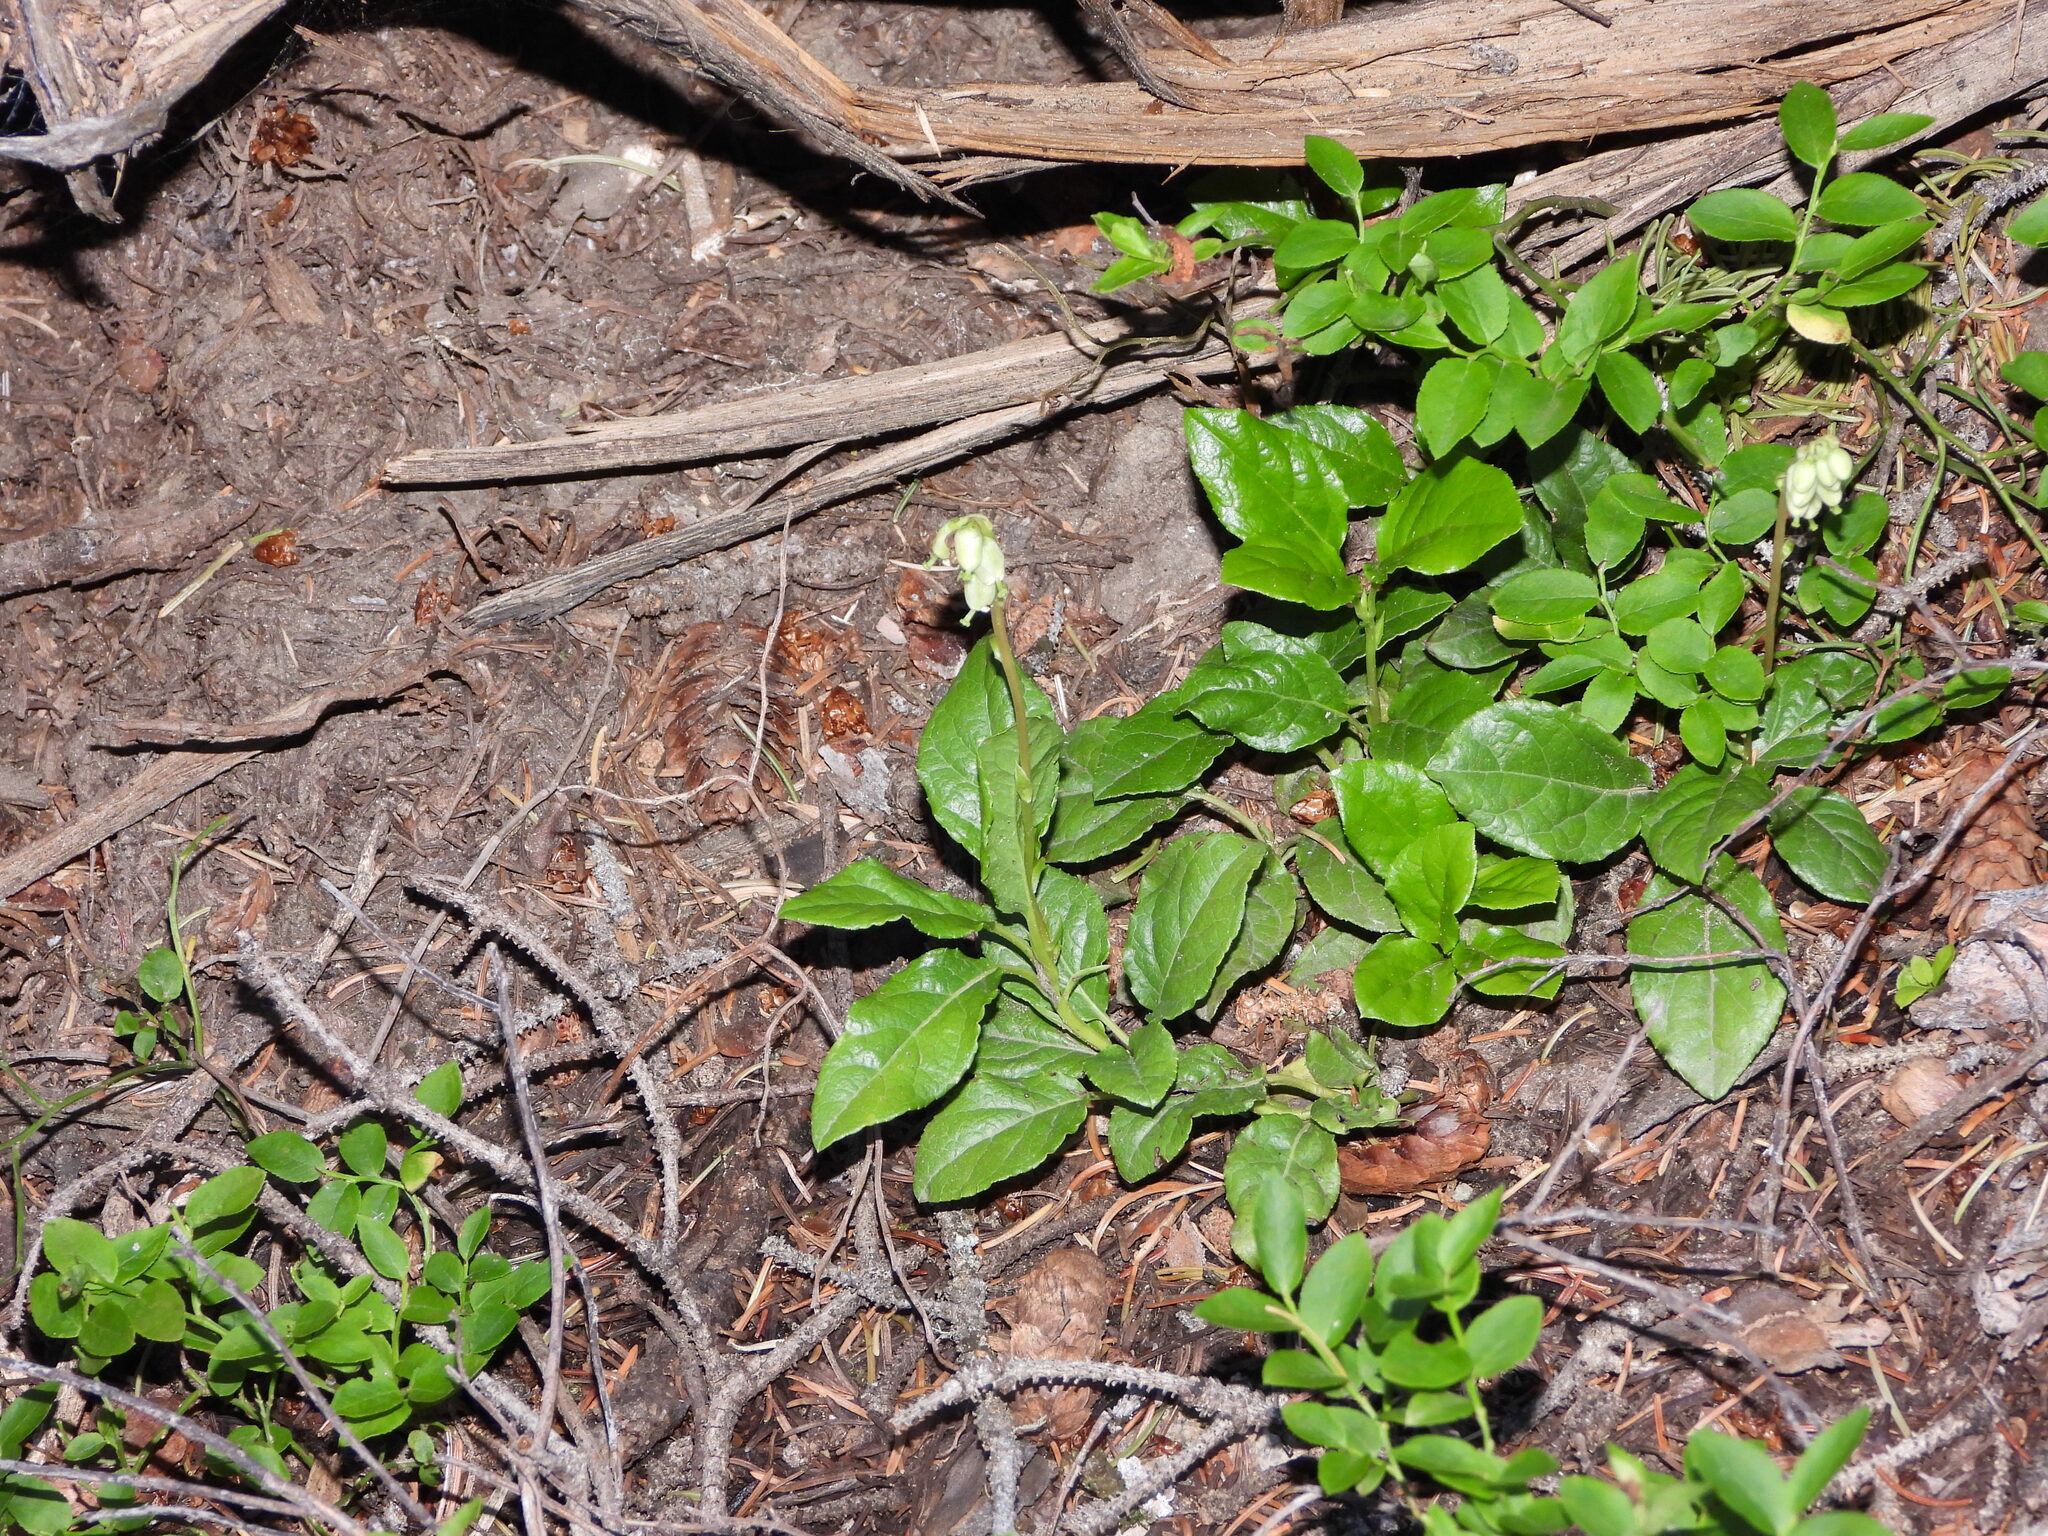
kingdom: Plantae
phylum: Tracheophyta
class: Magnoliopsida
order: Ericales
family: Ericaceae
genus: Orthilia
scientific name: Orthilia secunda
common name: One-sided orthilia
